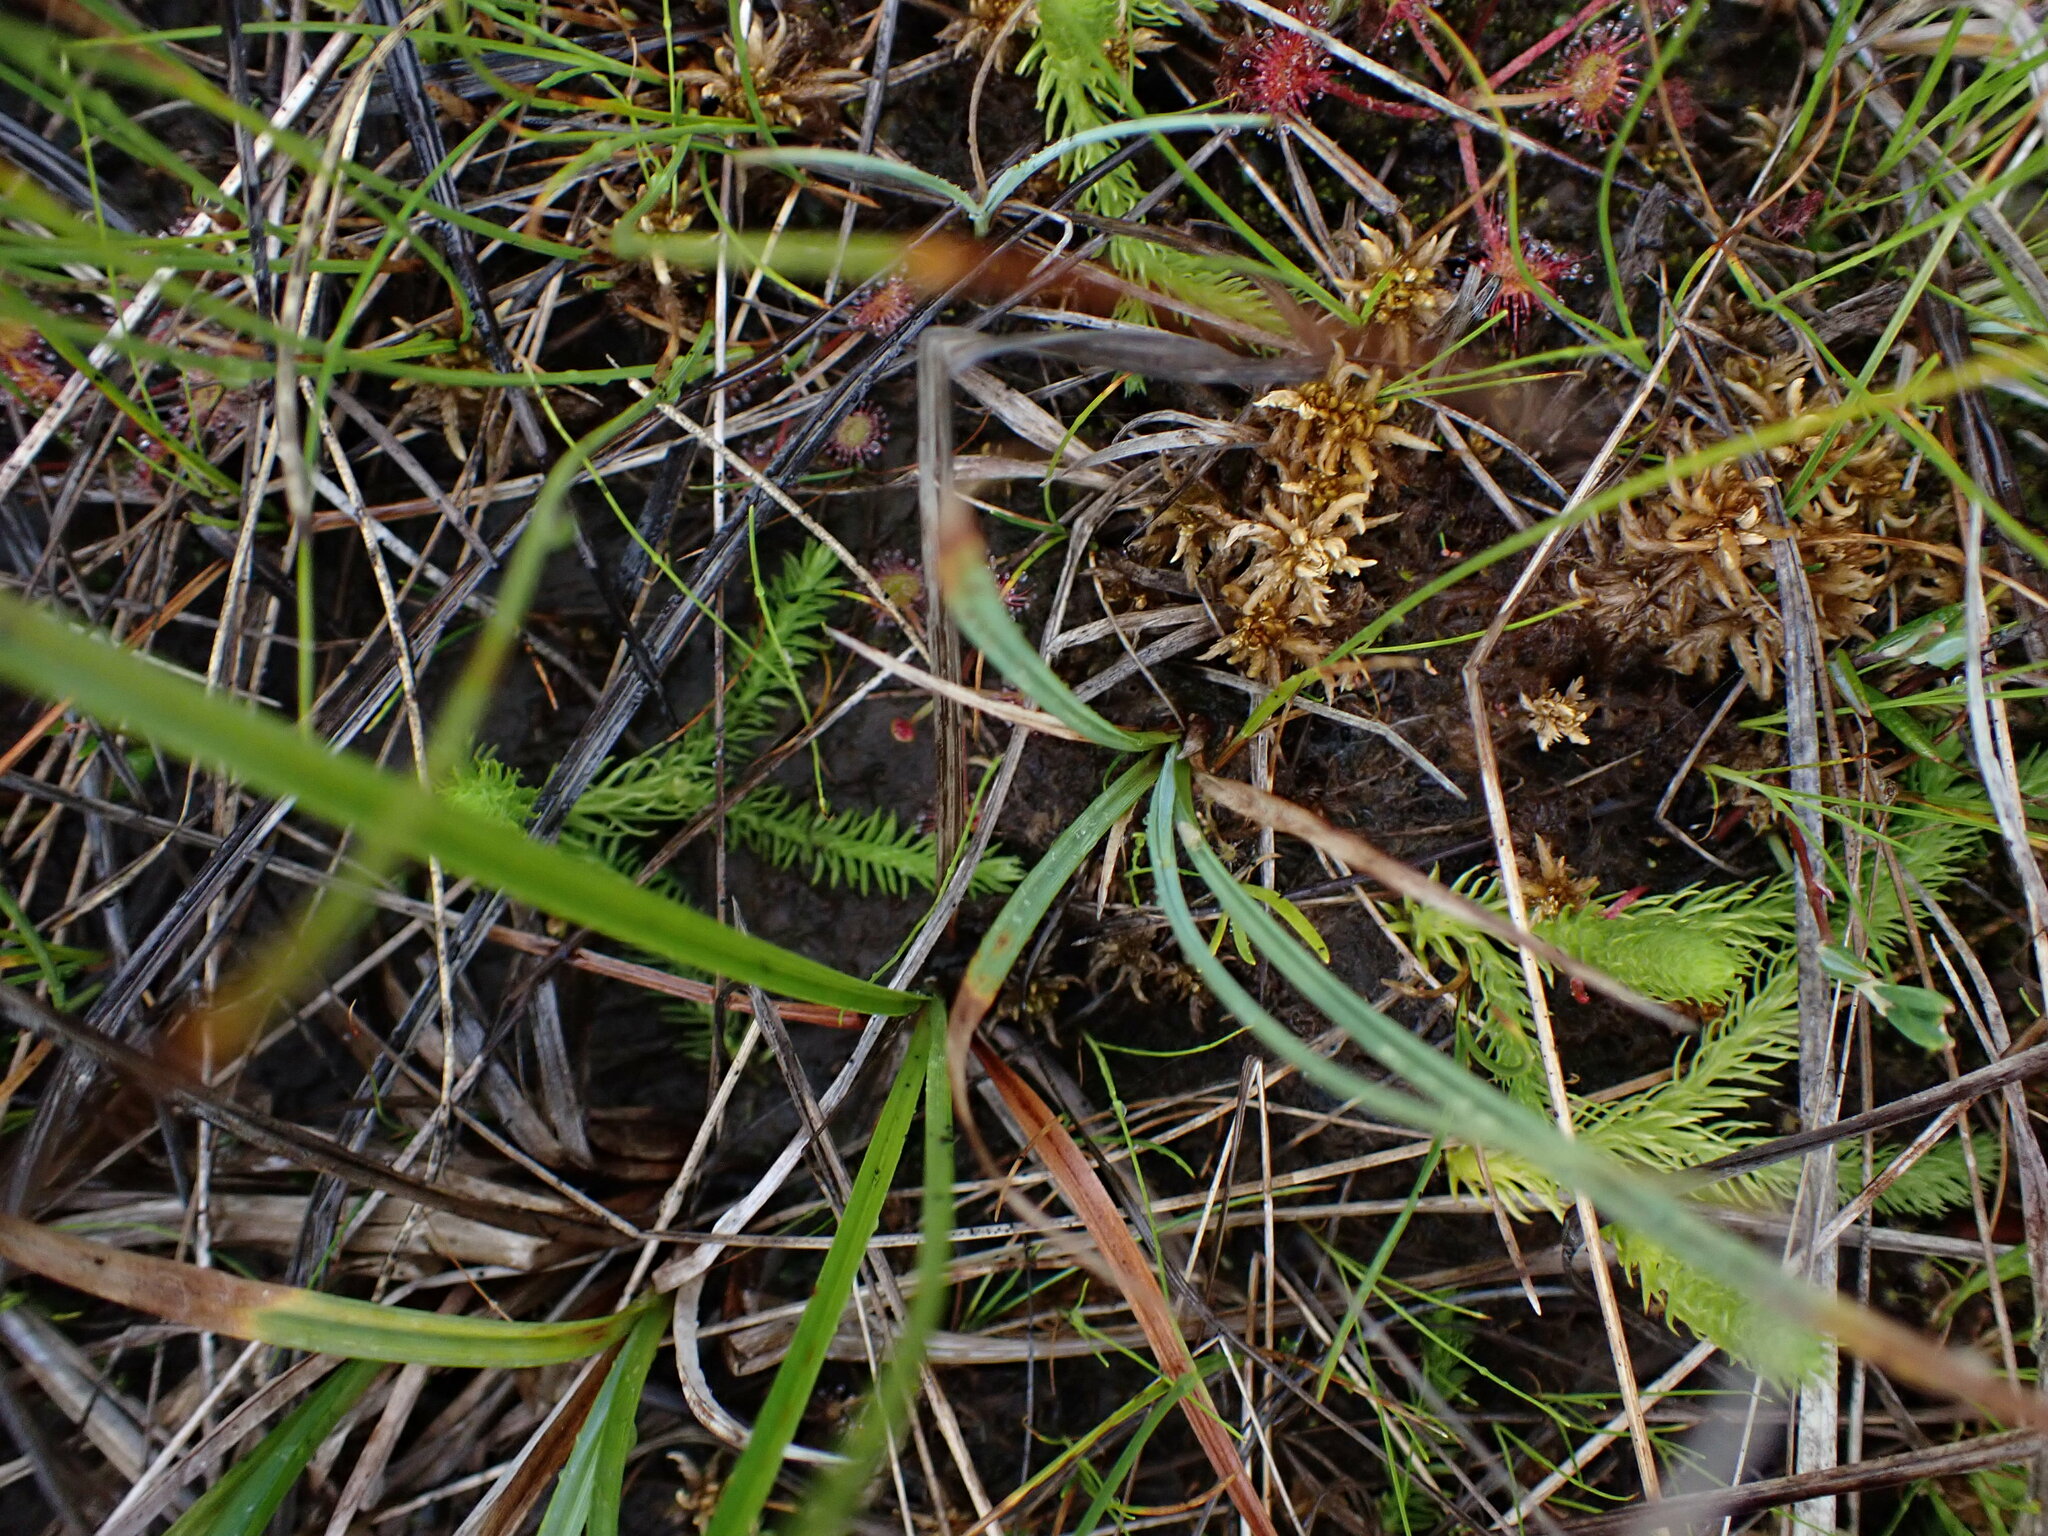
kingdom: Plantae
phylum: Tracheophyta
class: Lycopodiopsida
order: Lycopodiales
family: Lycopodiaceae
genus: Lycopodiella
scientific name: Lycopodiella inundata
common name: Marsh clubmoss
